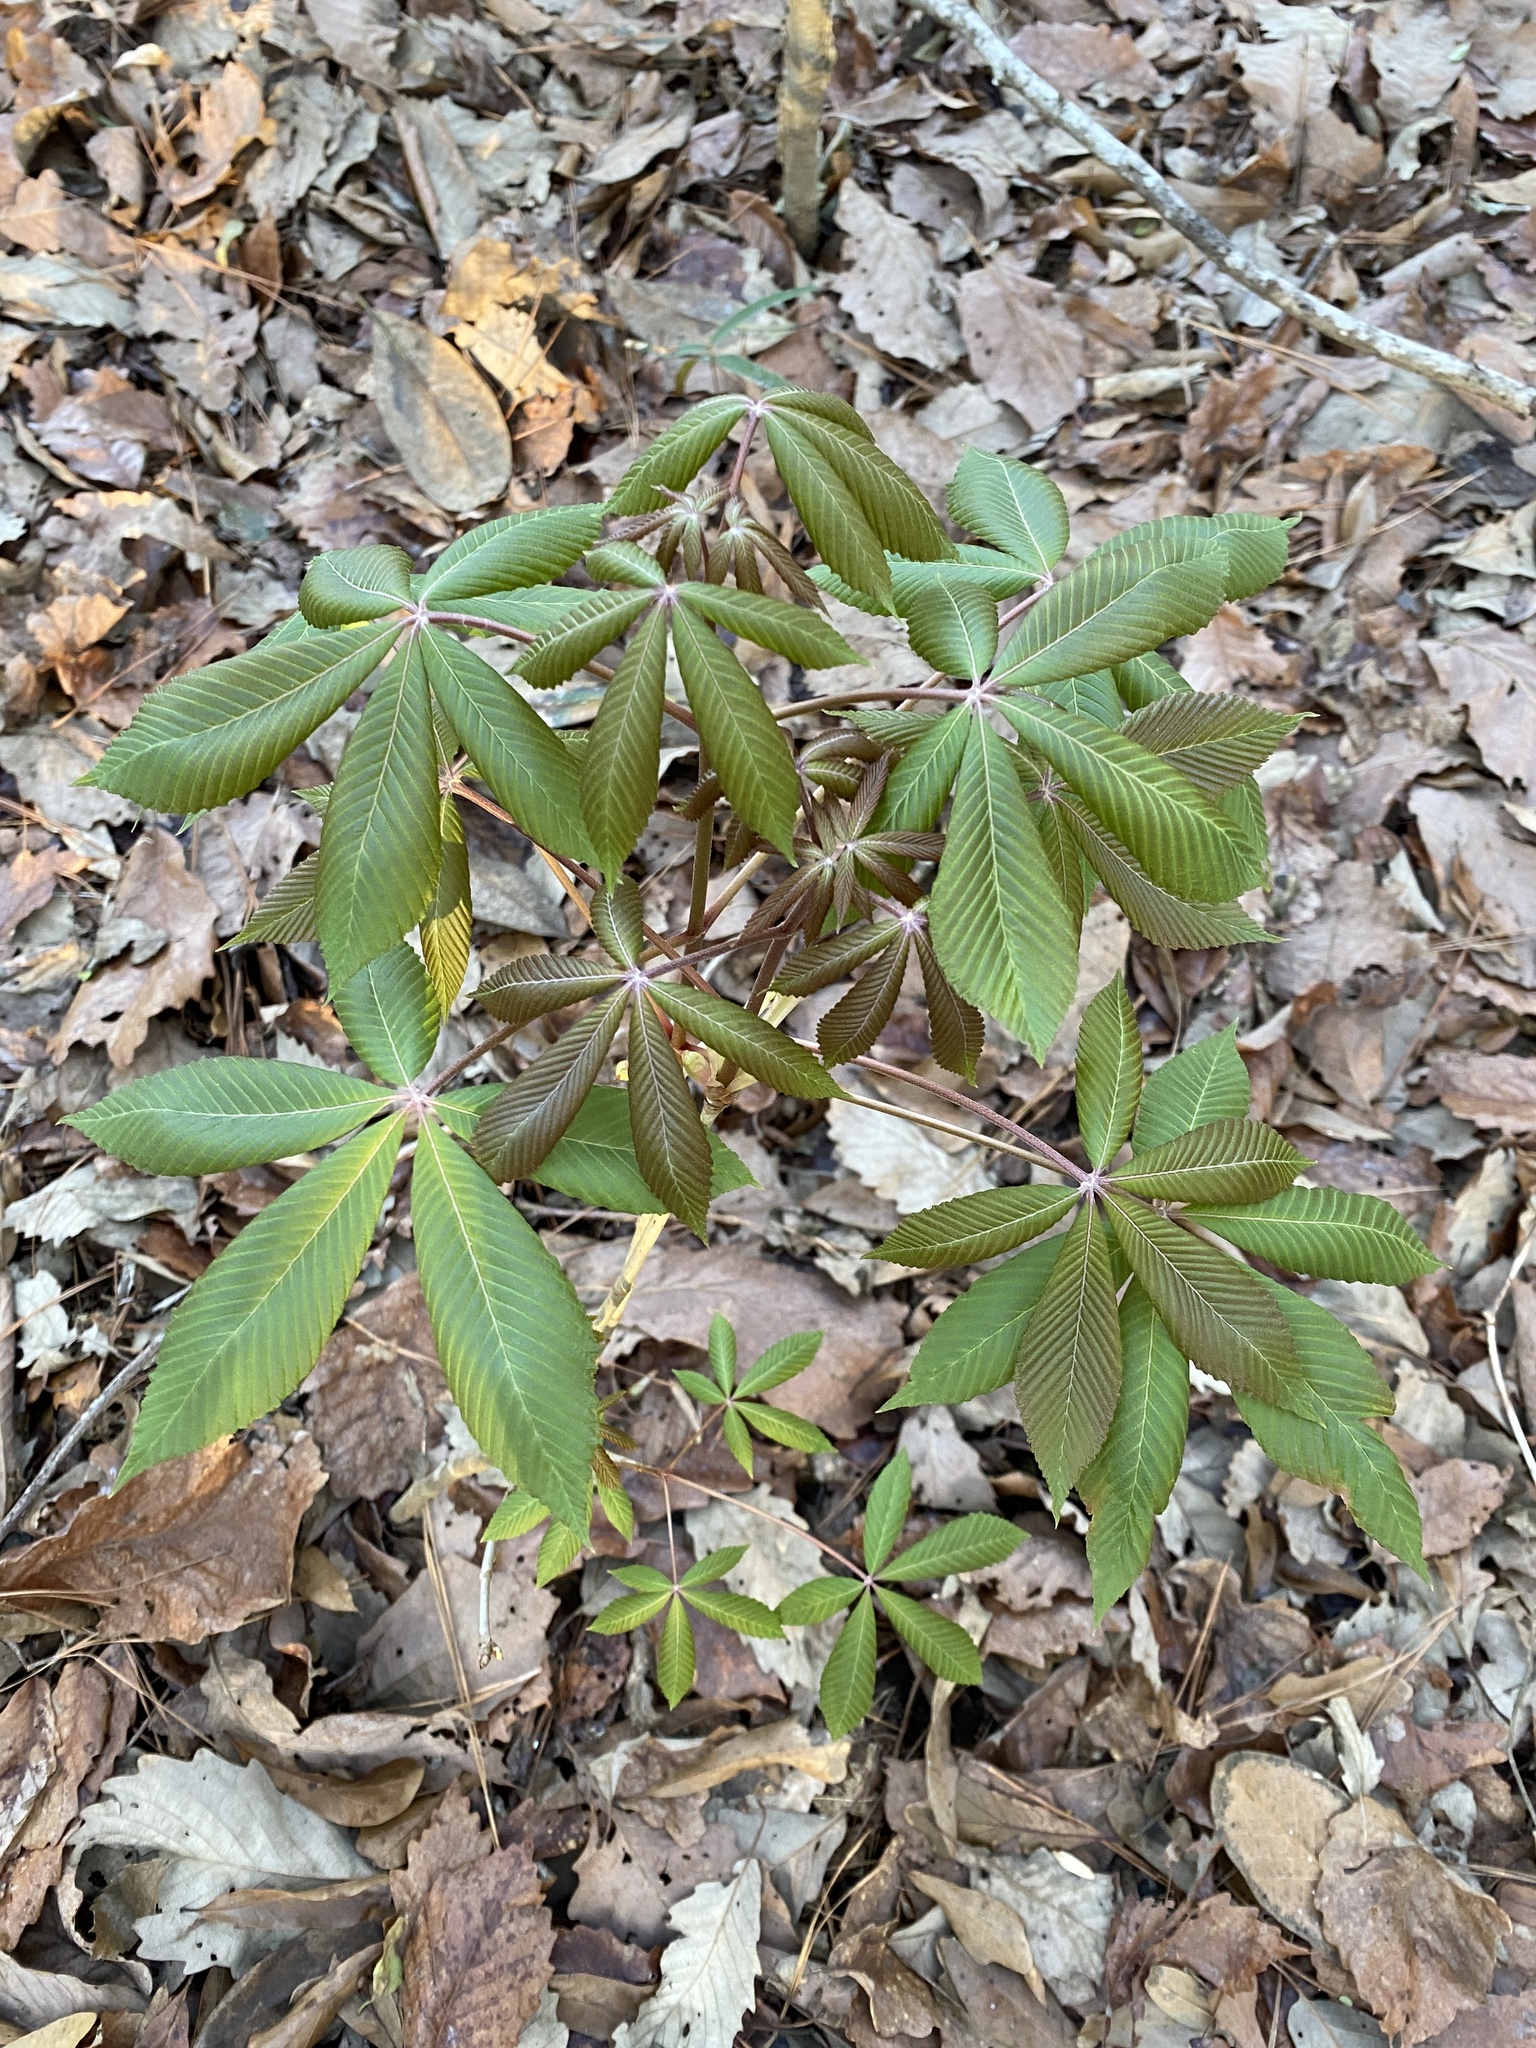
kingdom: Plantae
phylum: Tracheophyta
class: Magnoliopsida
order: Sapindales
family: Sapindaceae
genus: Aesculus
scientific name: Aesculus pavia
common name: Red buckeye
